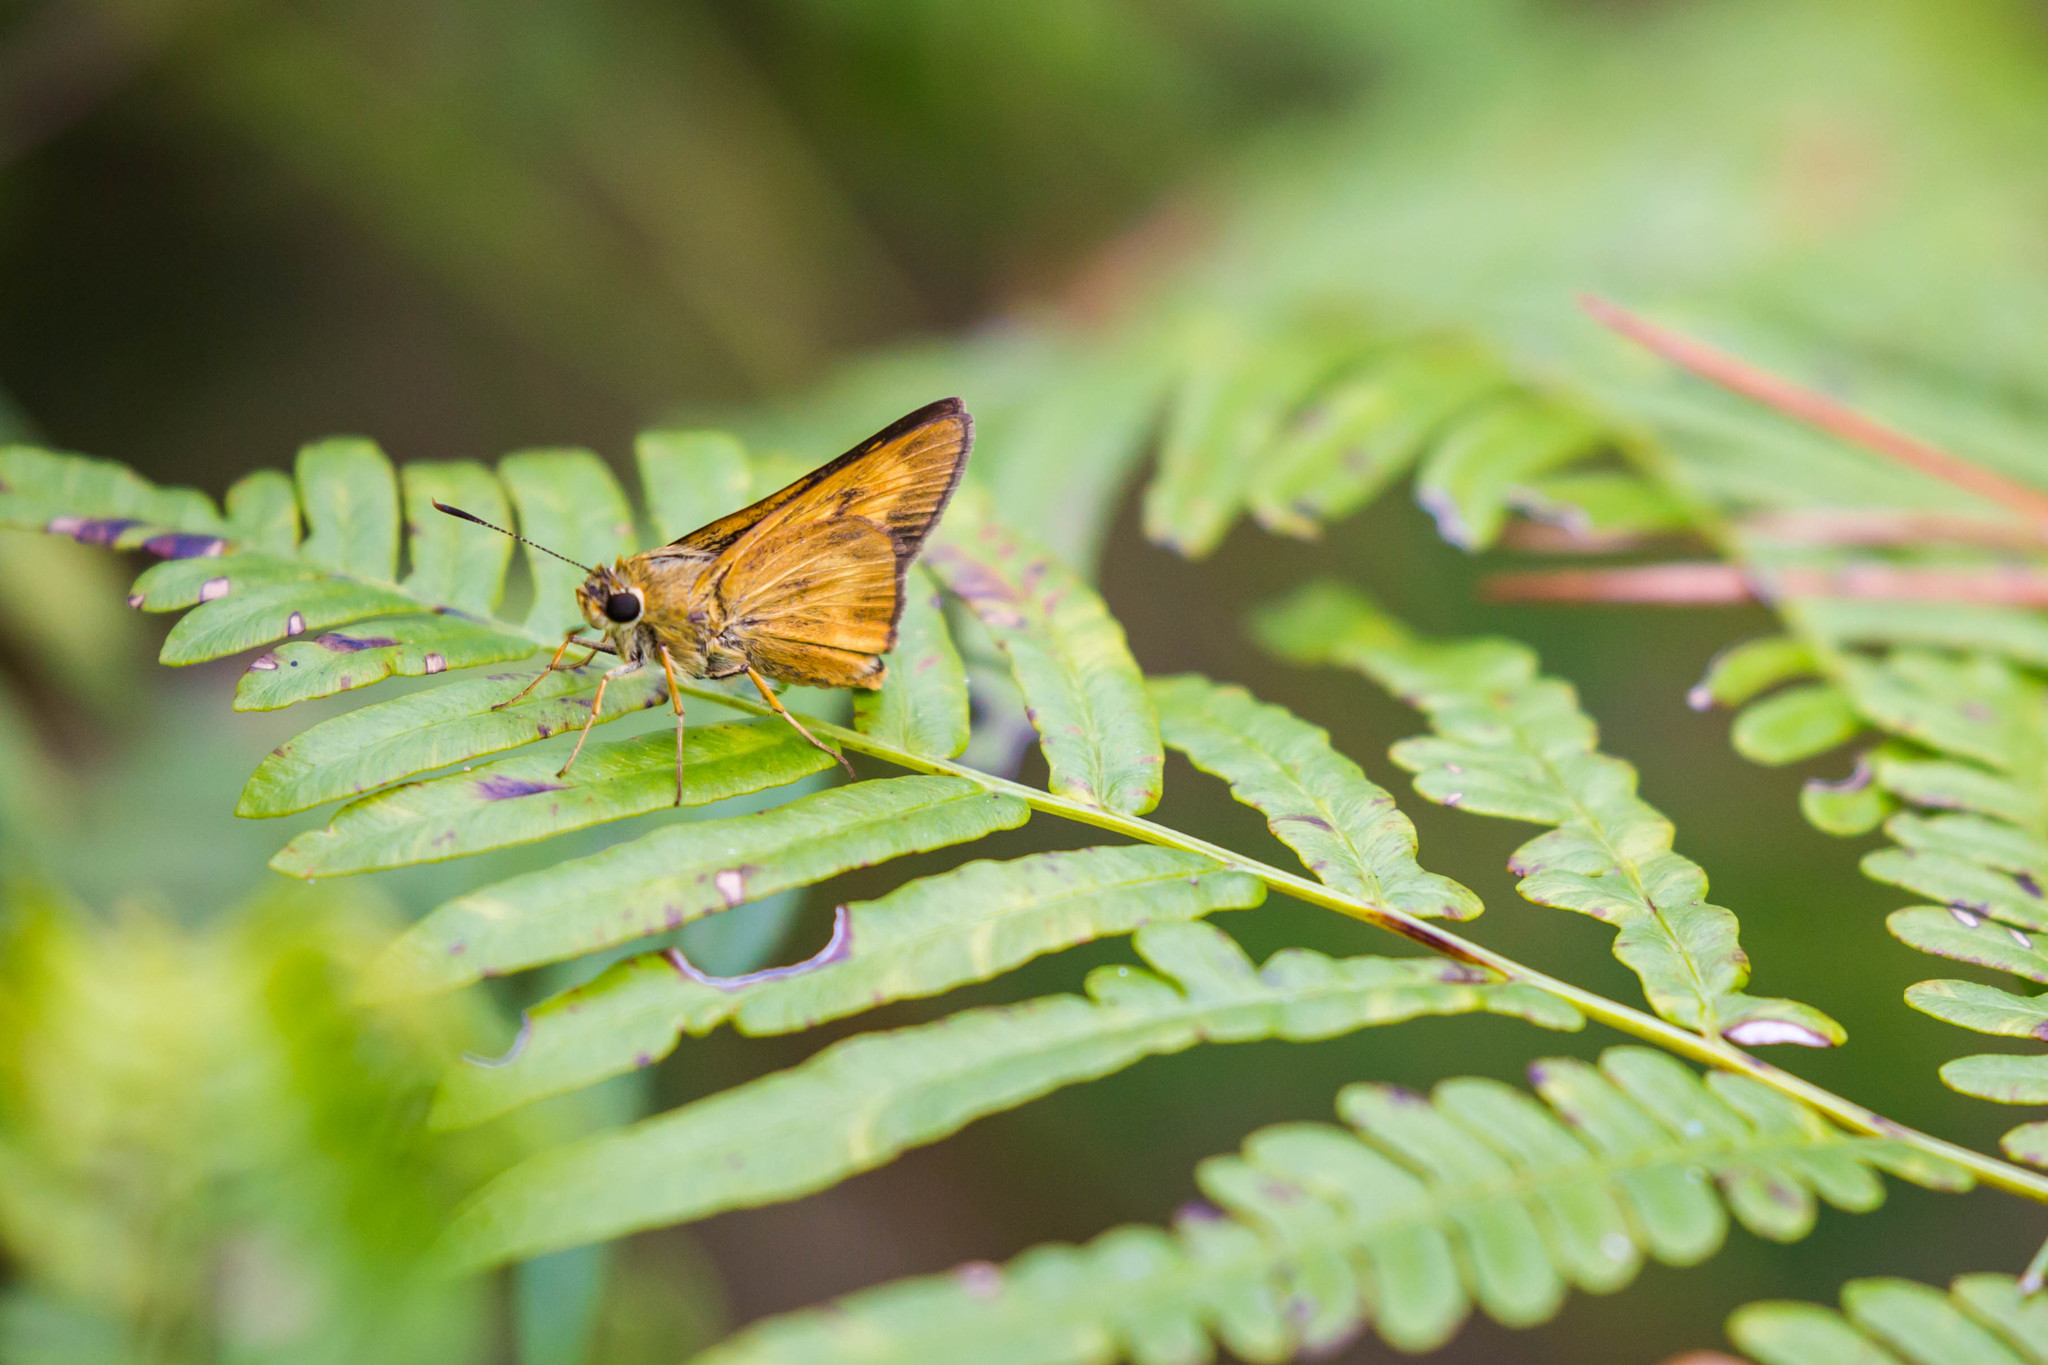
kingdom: Animalia
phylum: Arthropoda
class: Insecta
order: Lepidoptera
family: Hesperiidae
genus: Problema
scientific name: Problema byssus
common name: Byssus skipper
